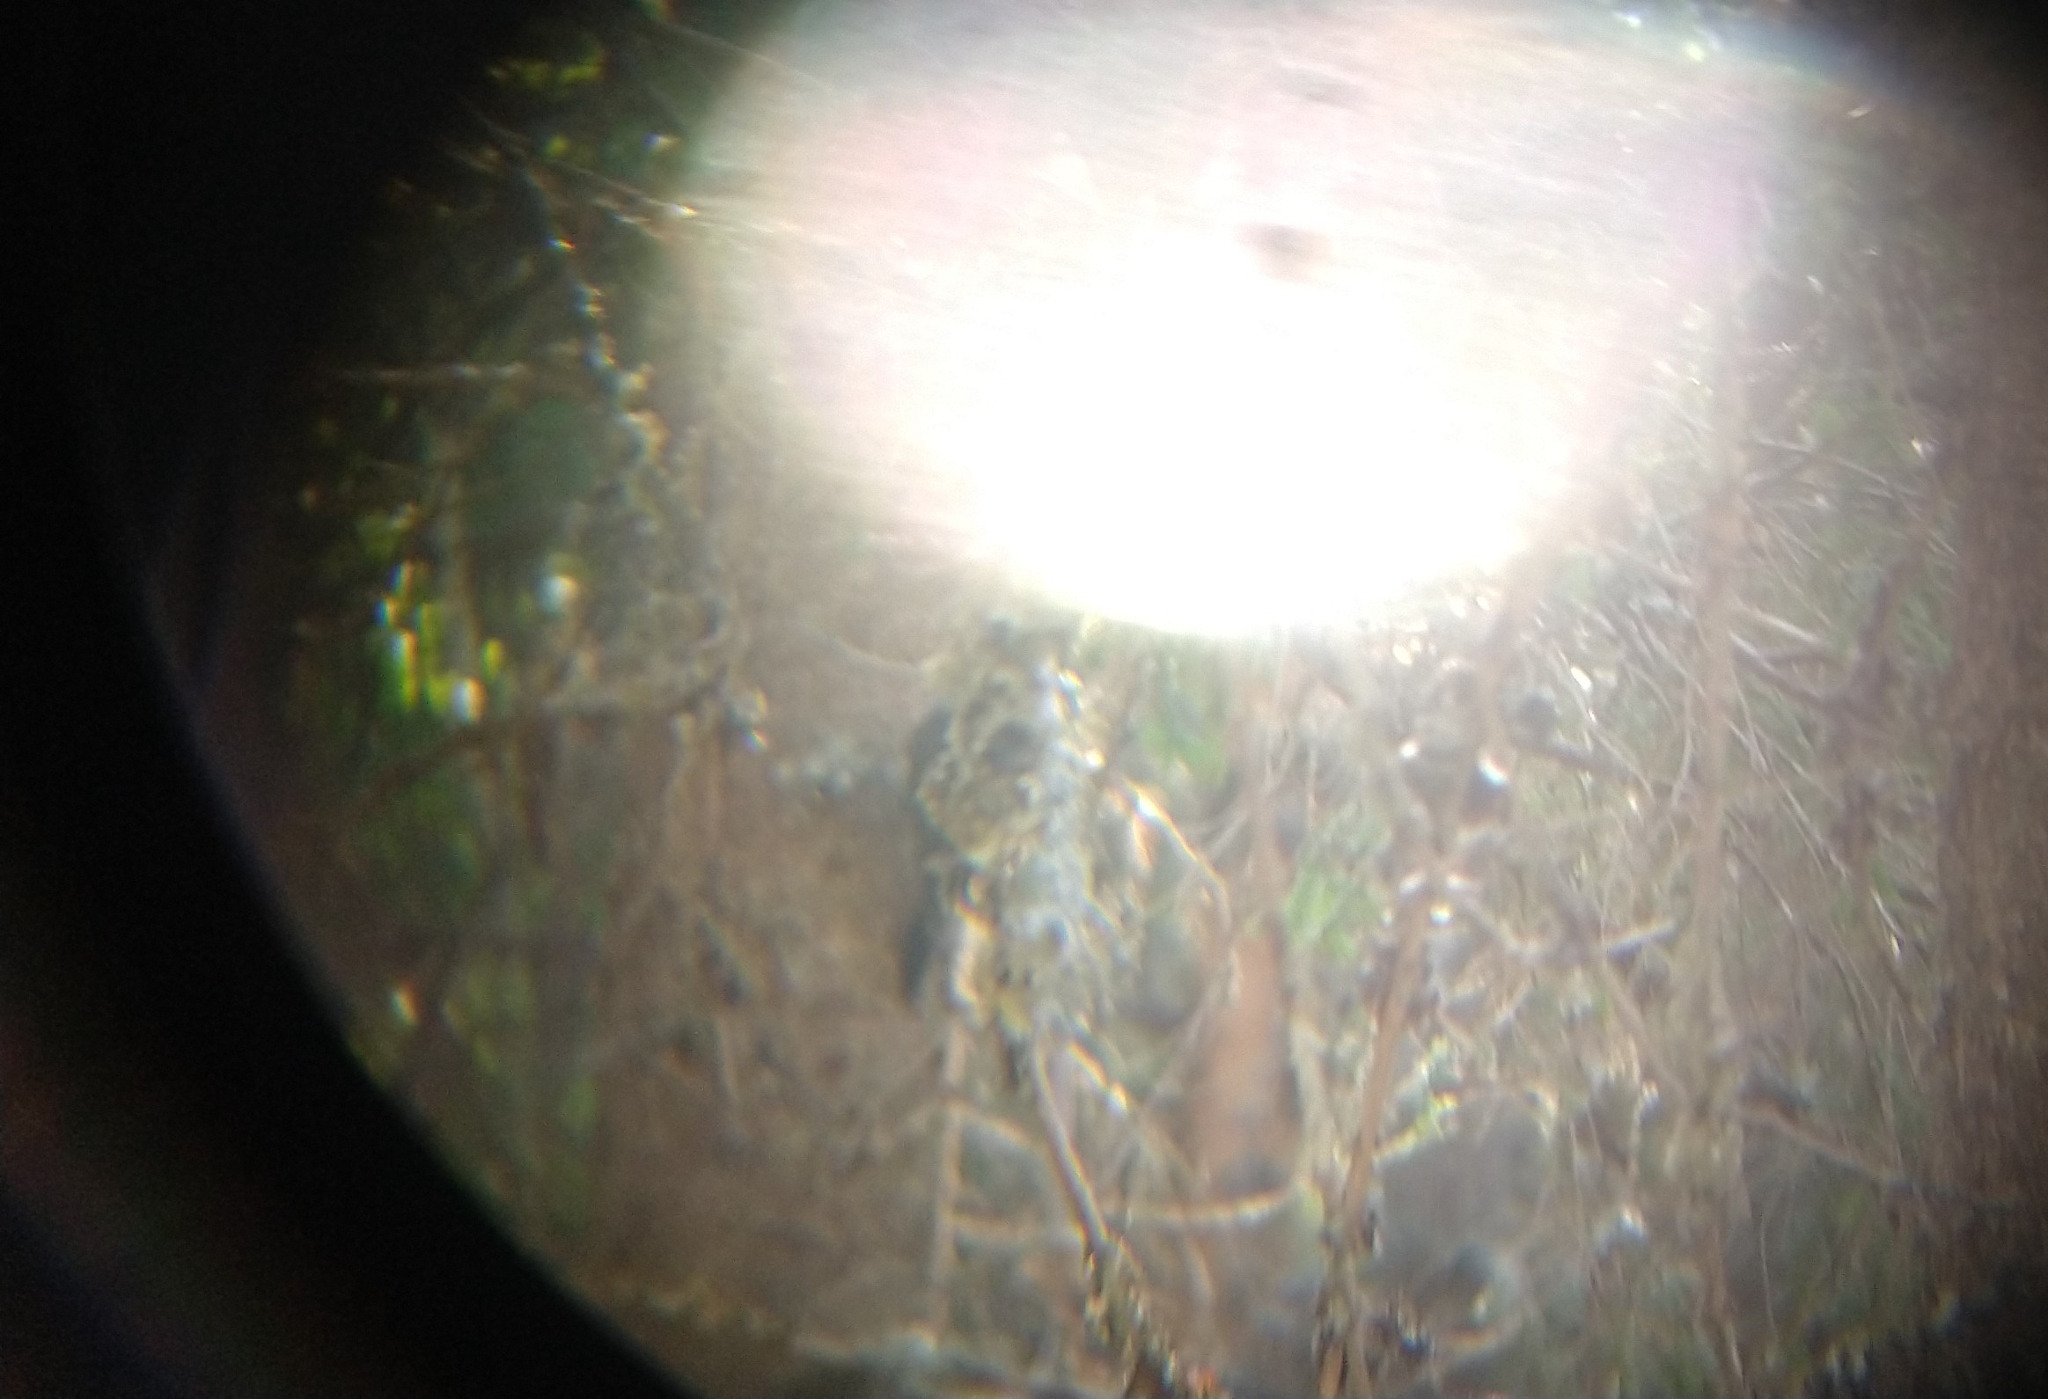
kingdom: Animalia
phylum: Chordata
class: Aves
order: Piciformes
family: Picidae
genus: Picoides
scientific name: Picoides tridactylus
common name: Eurasian three-toed woodpecker
